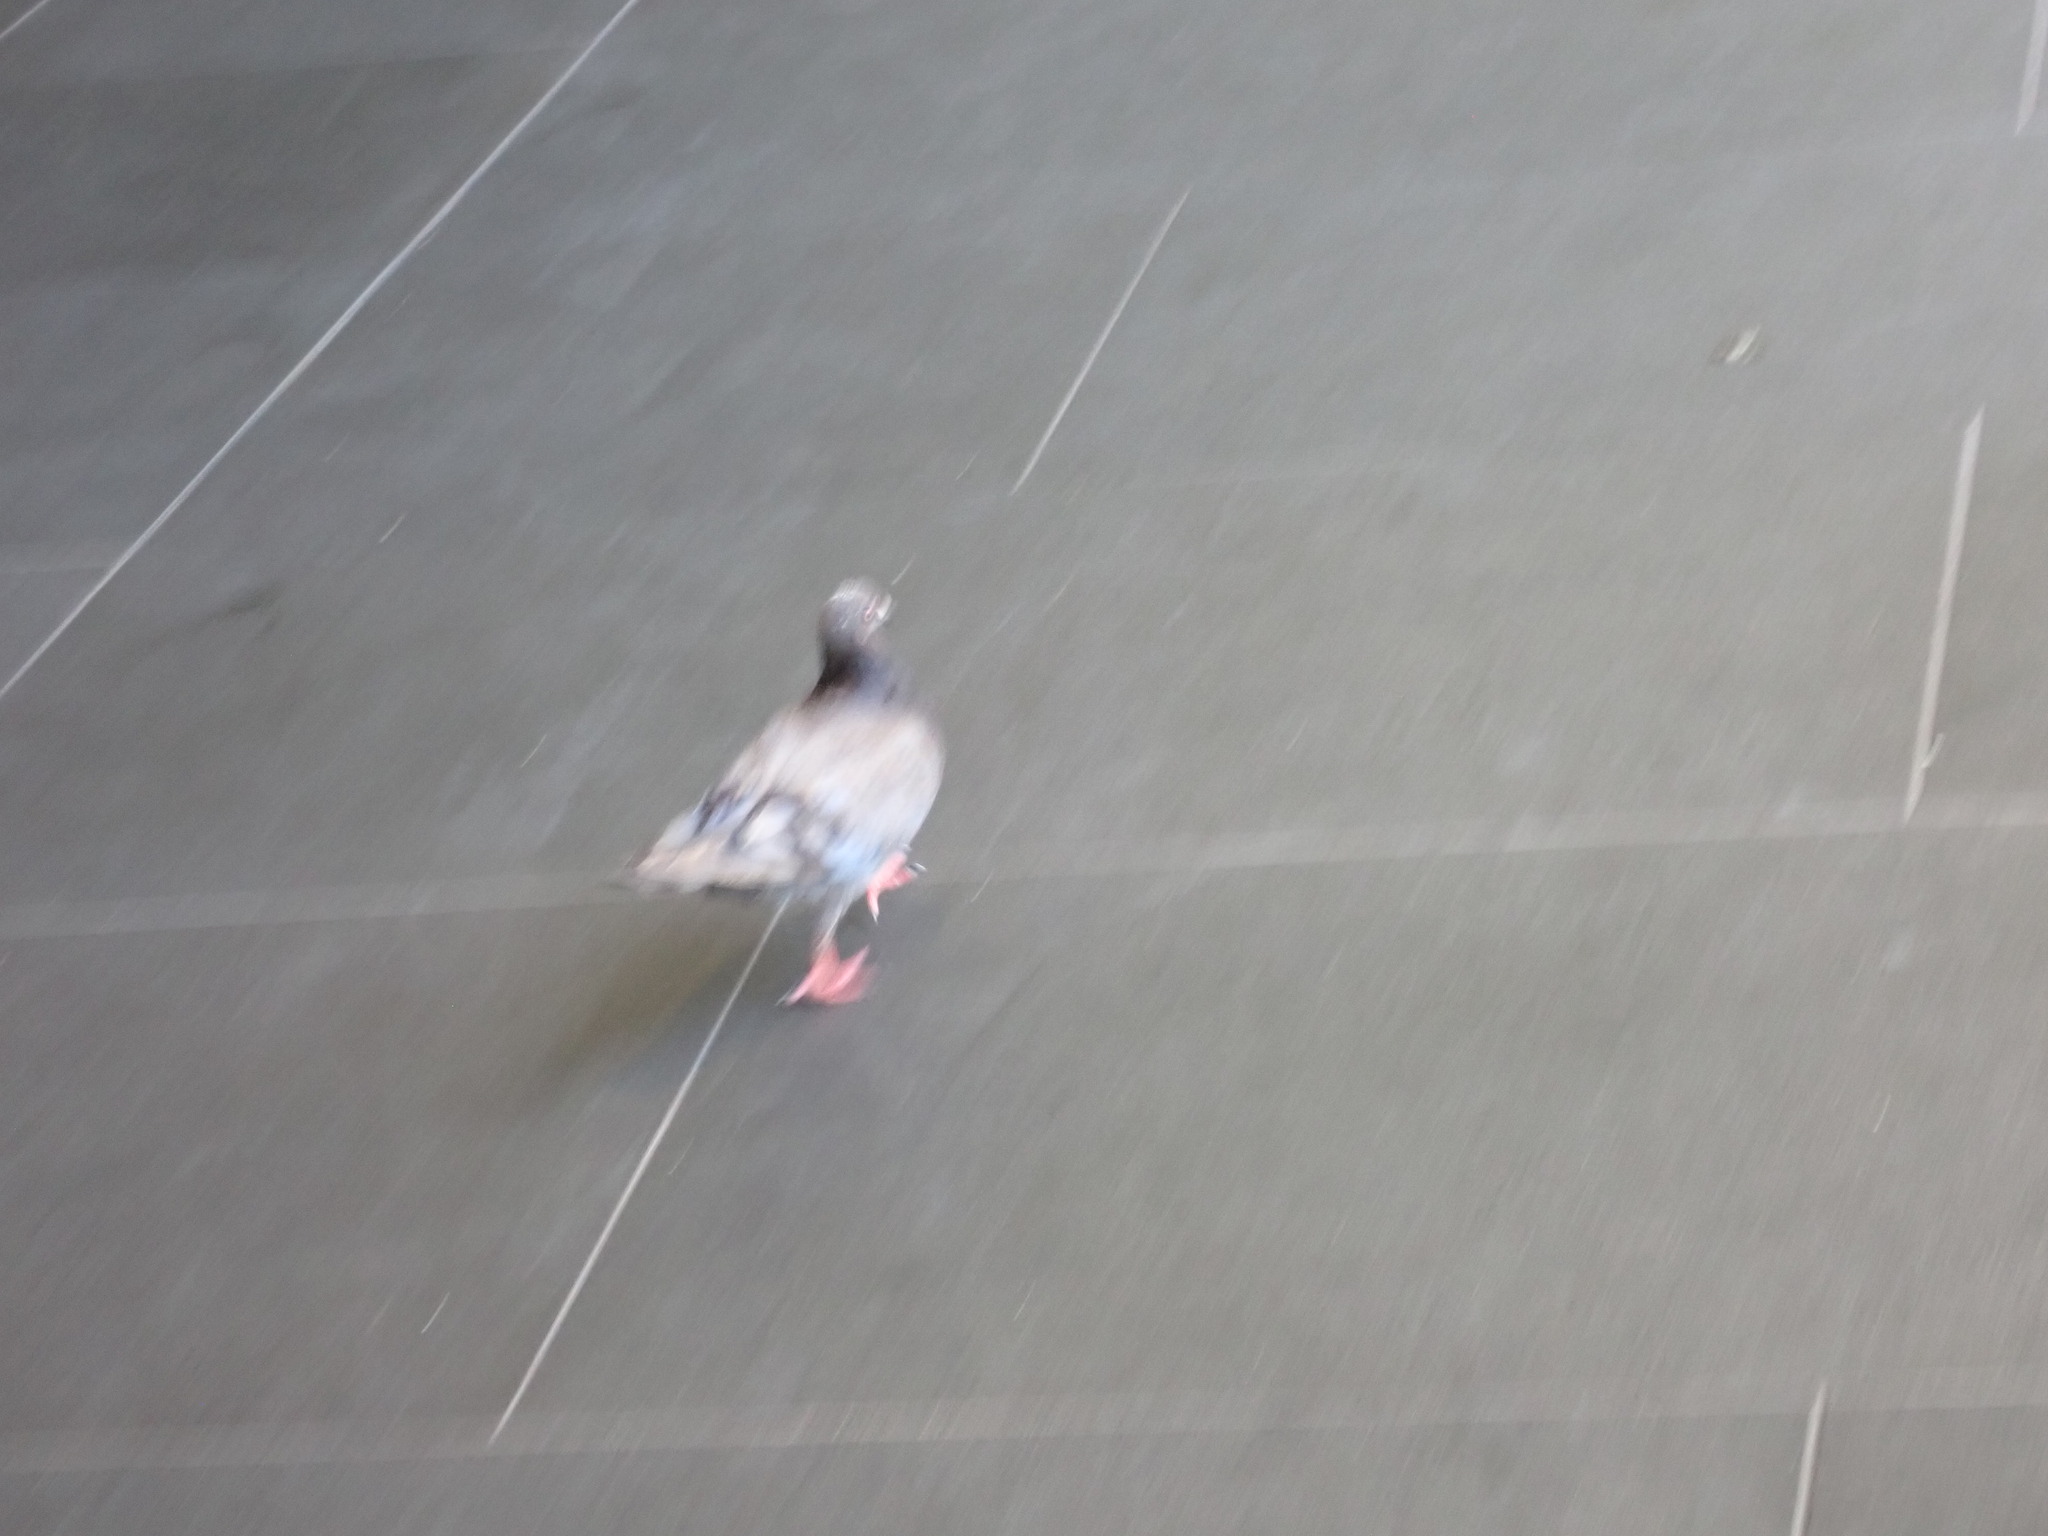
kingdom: Animalia
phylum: Chordata
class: Aves
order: Columbiformes
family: Columbidae
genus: Columba
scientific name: Columba livia
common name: Rock pigeon
